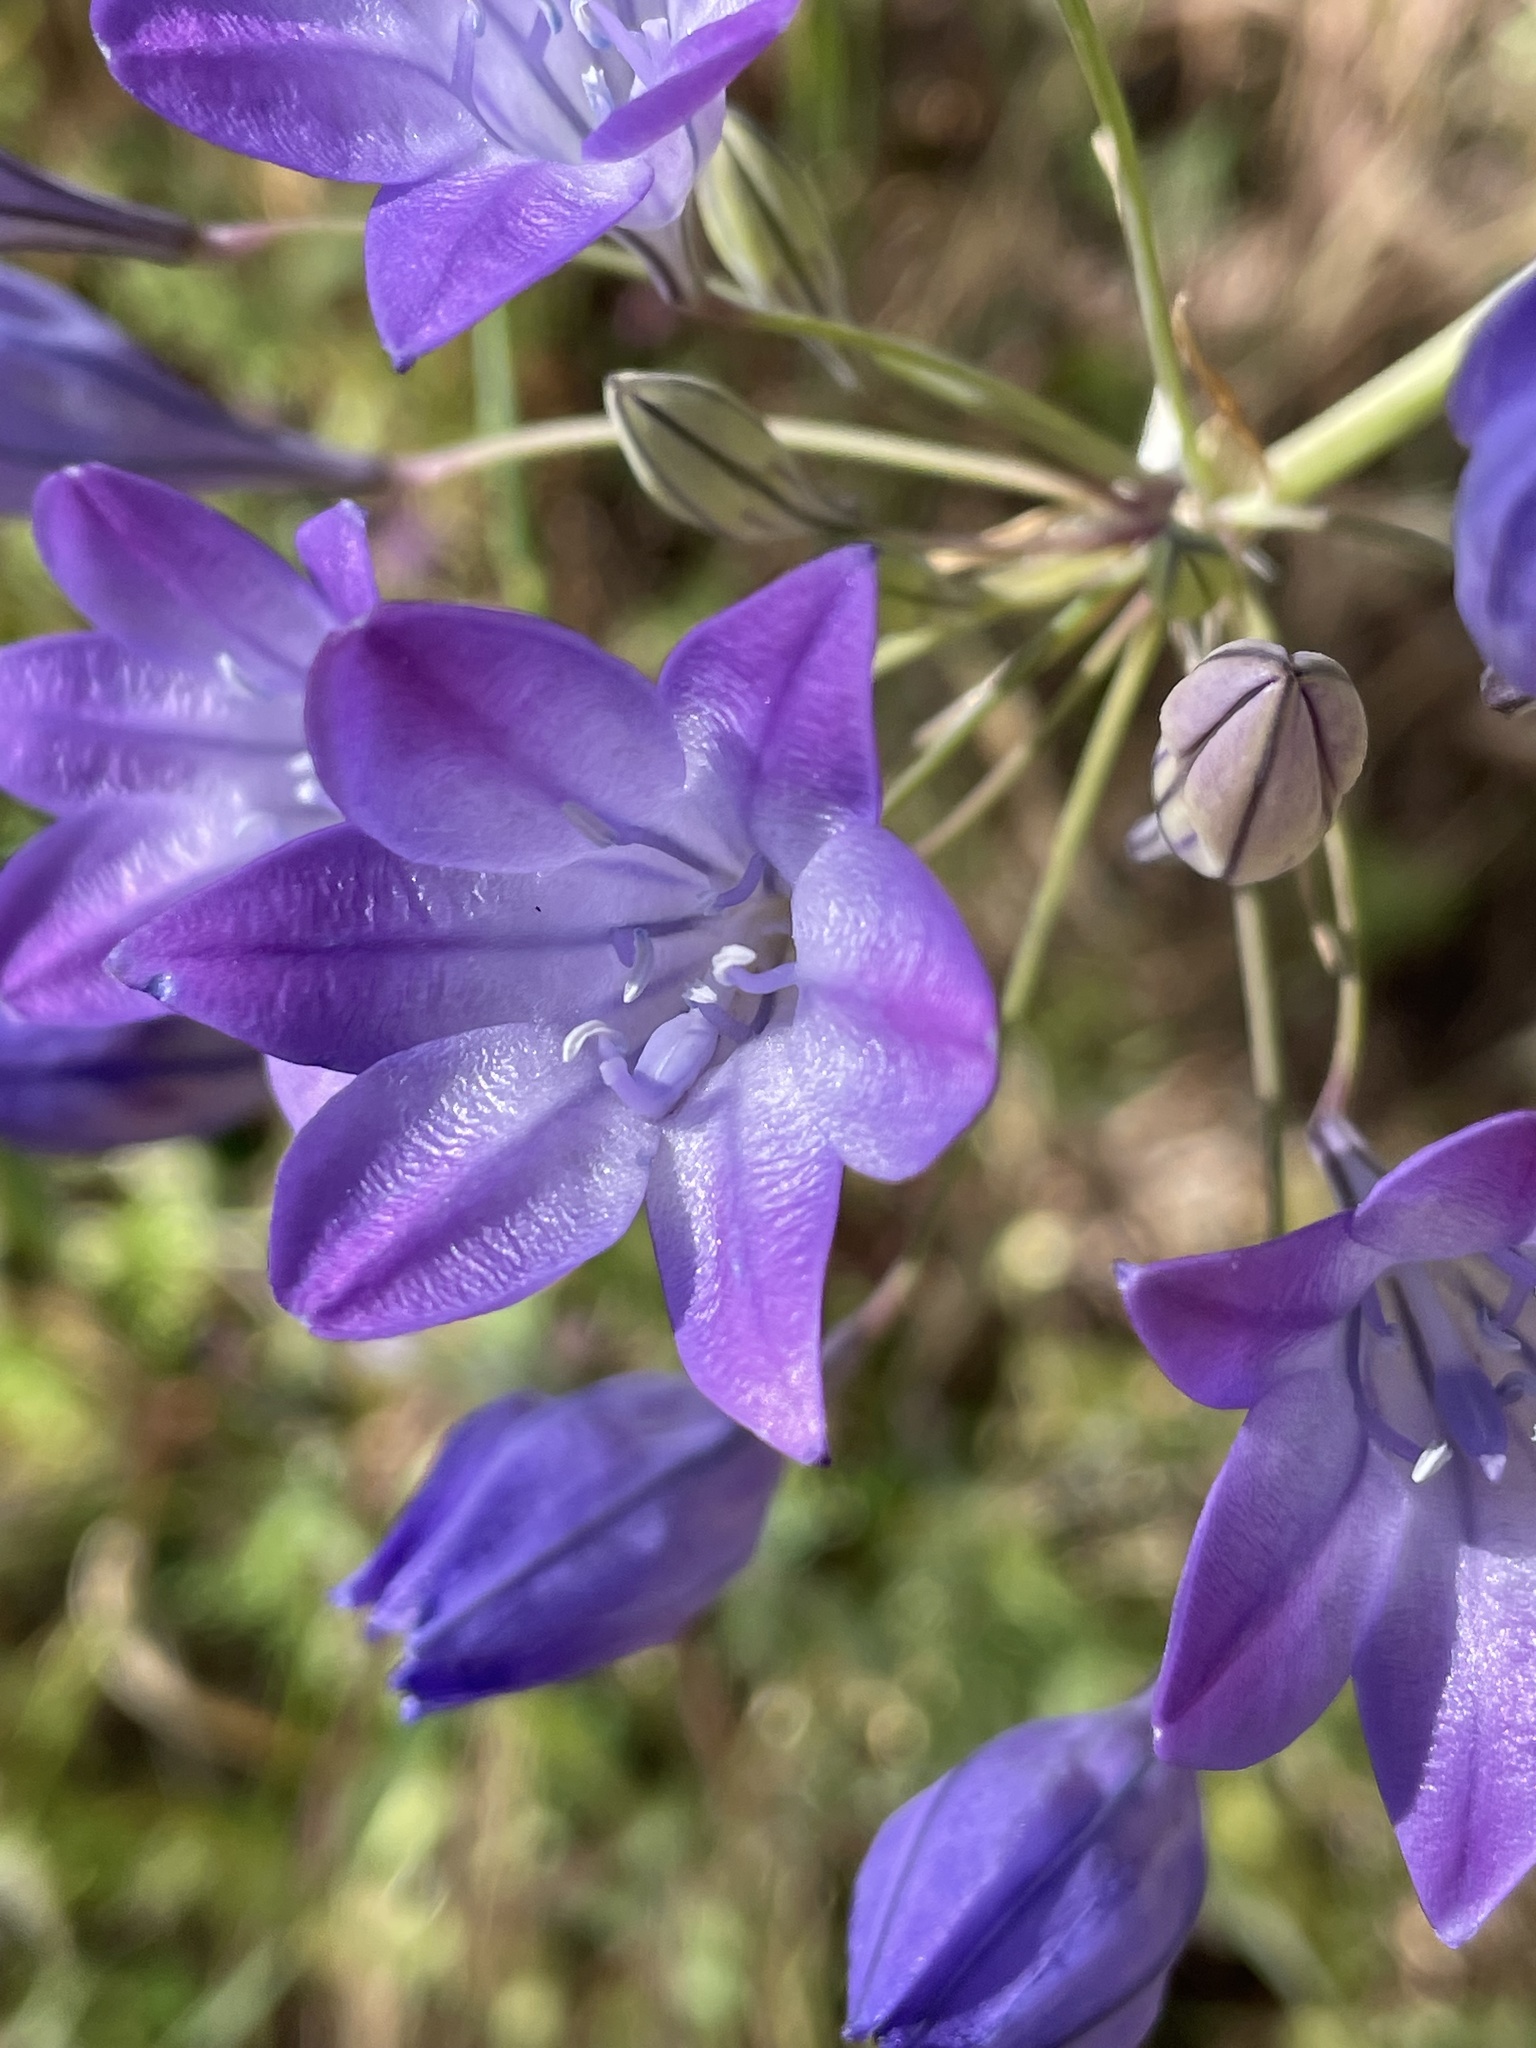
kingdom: Plantae
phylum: Tracheophyta
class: Liliopsida
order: Asparagales
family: Asparagaceae
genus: Triteleia
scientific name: Triteleia laxa
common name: Triplet-lily
